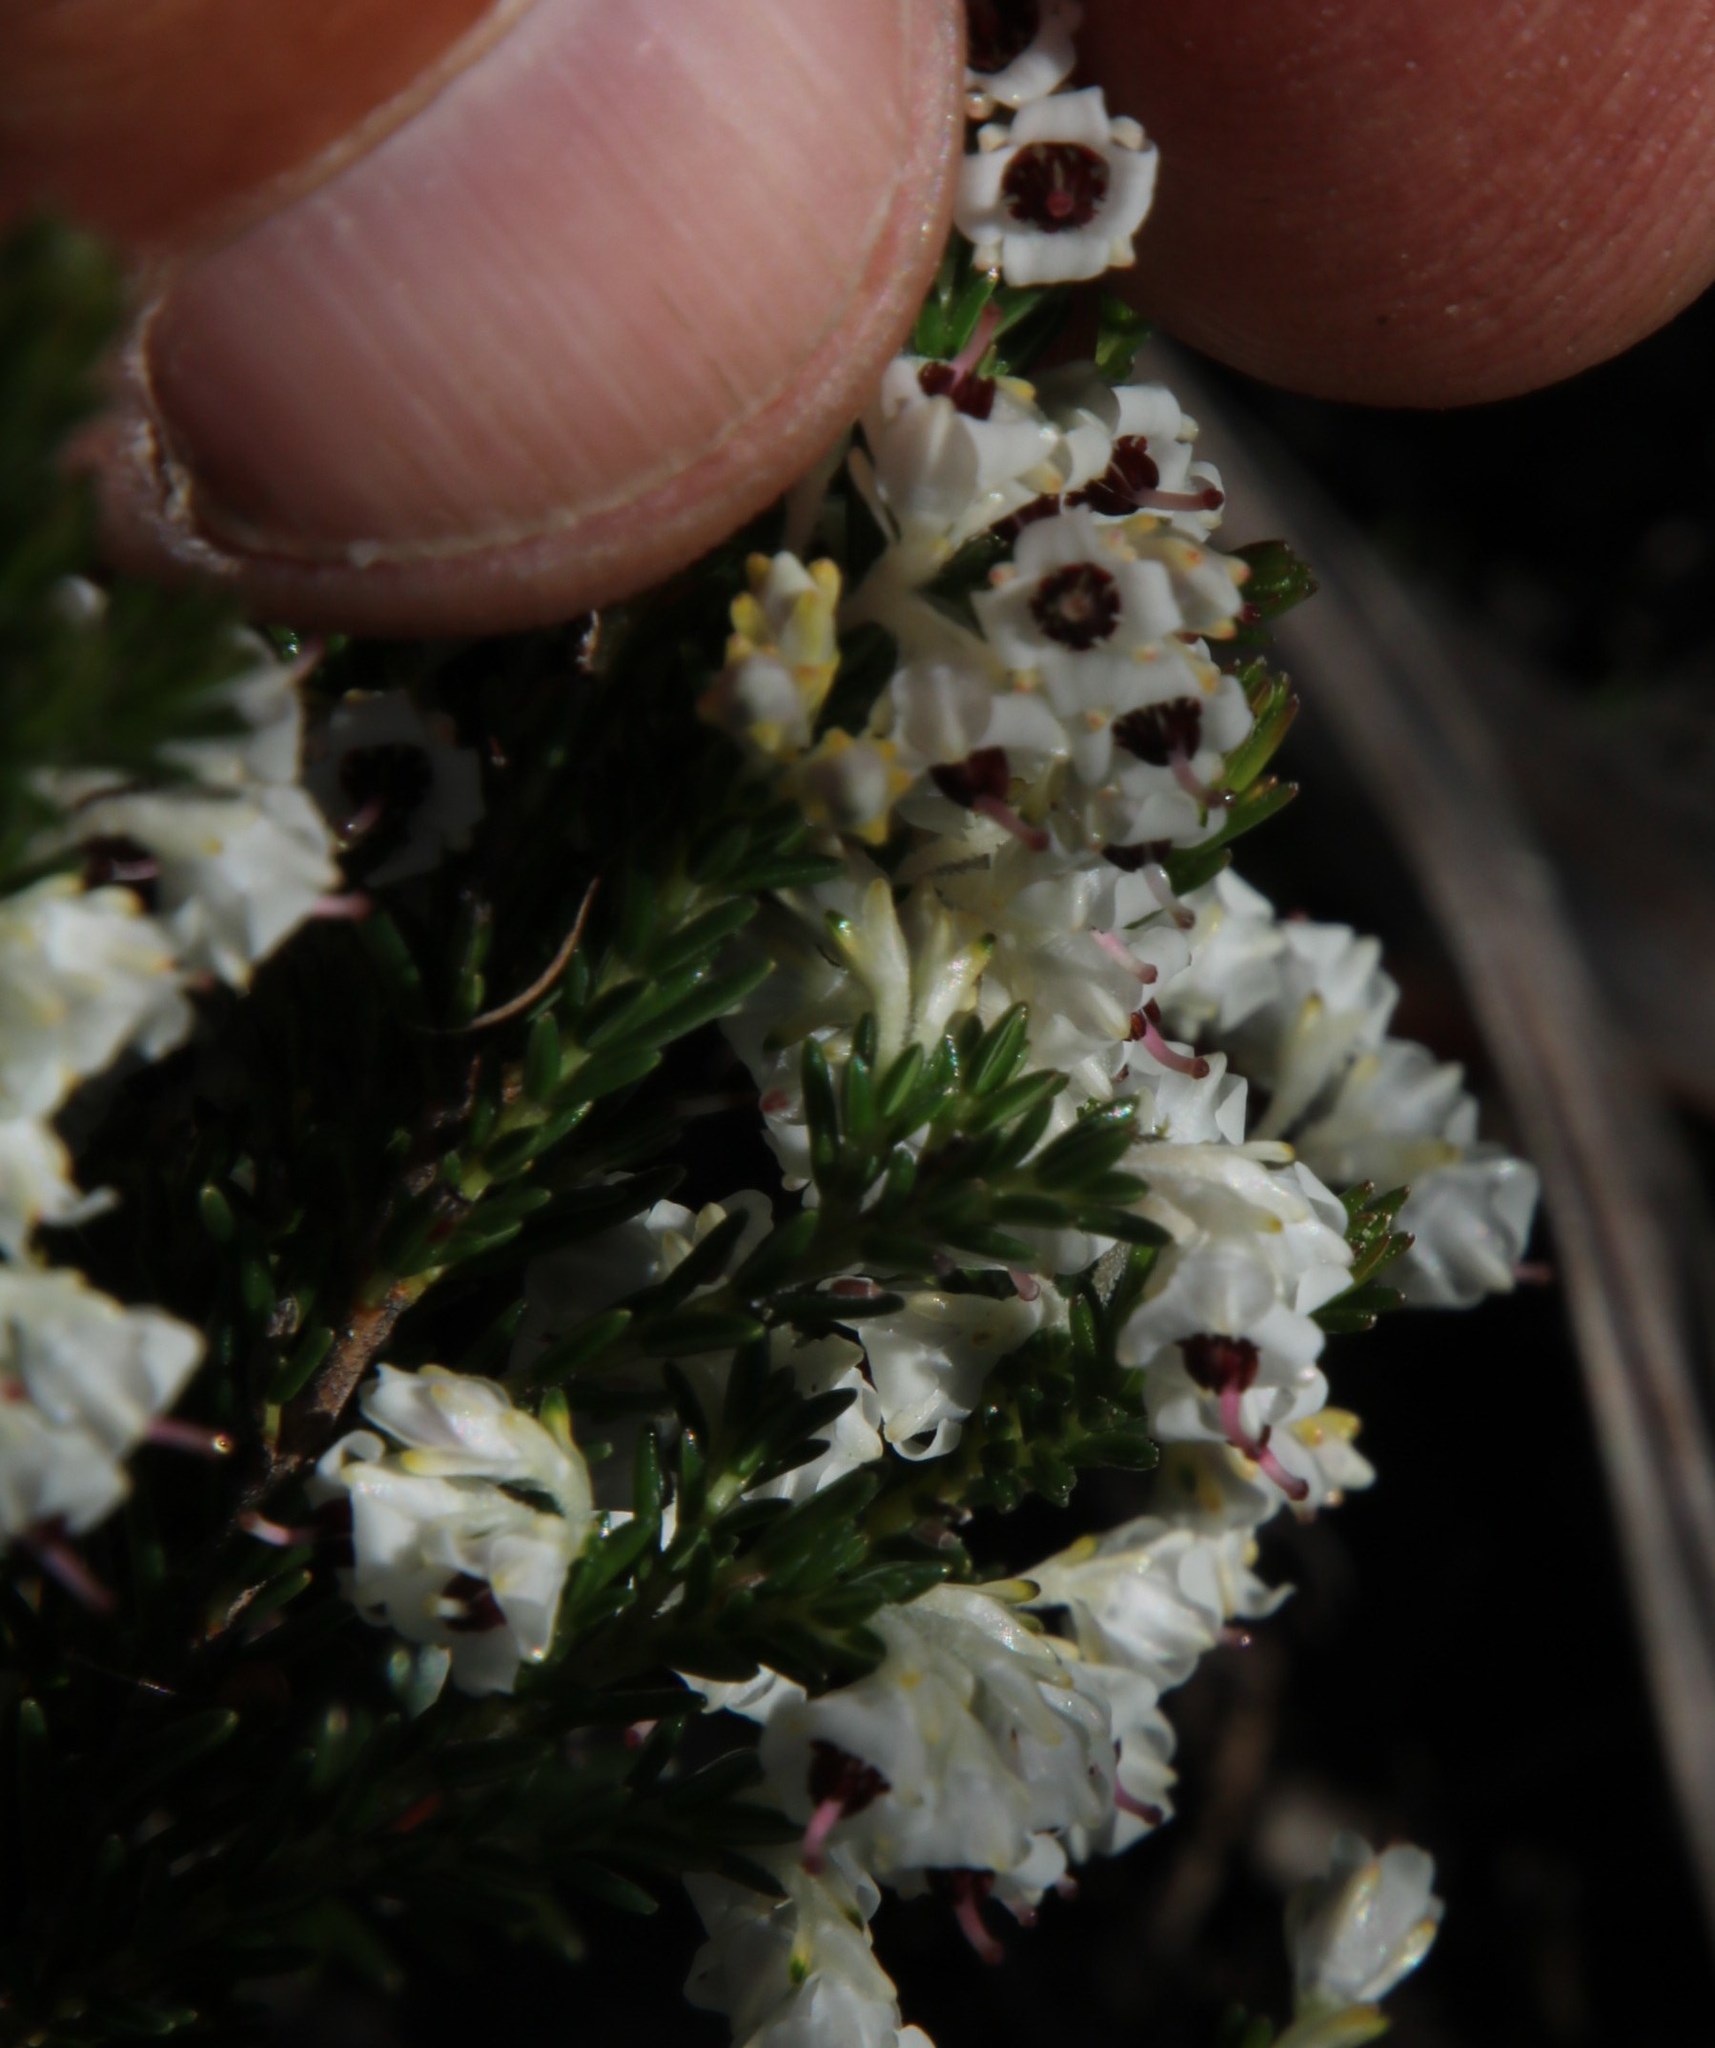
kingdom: Plantae
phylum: Tracheophyta
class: Magnoliopsida
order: Ericales
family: Ericaceae
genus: Erica
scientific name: Erica calycina
